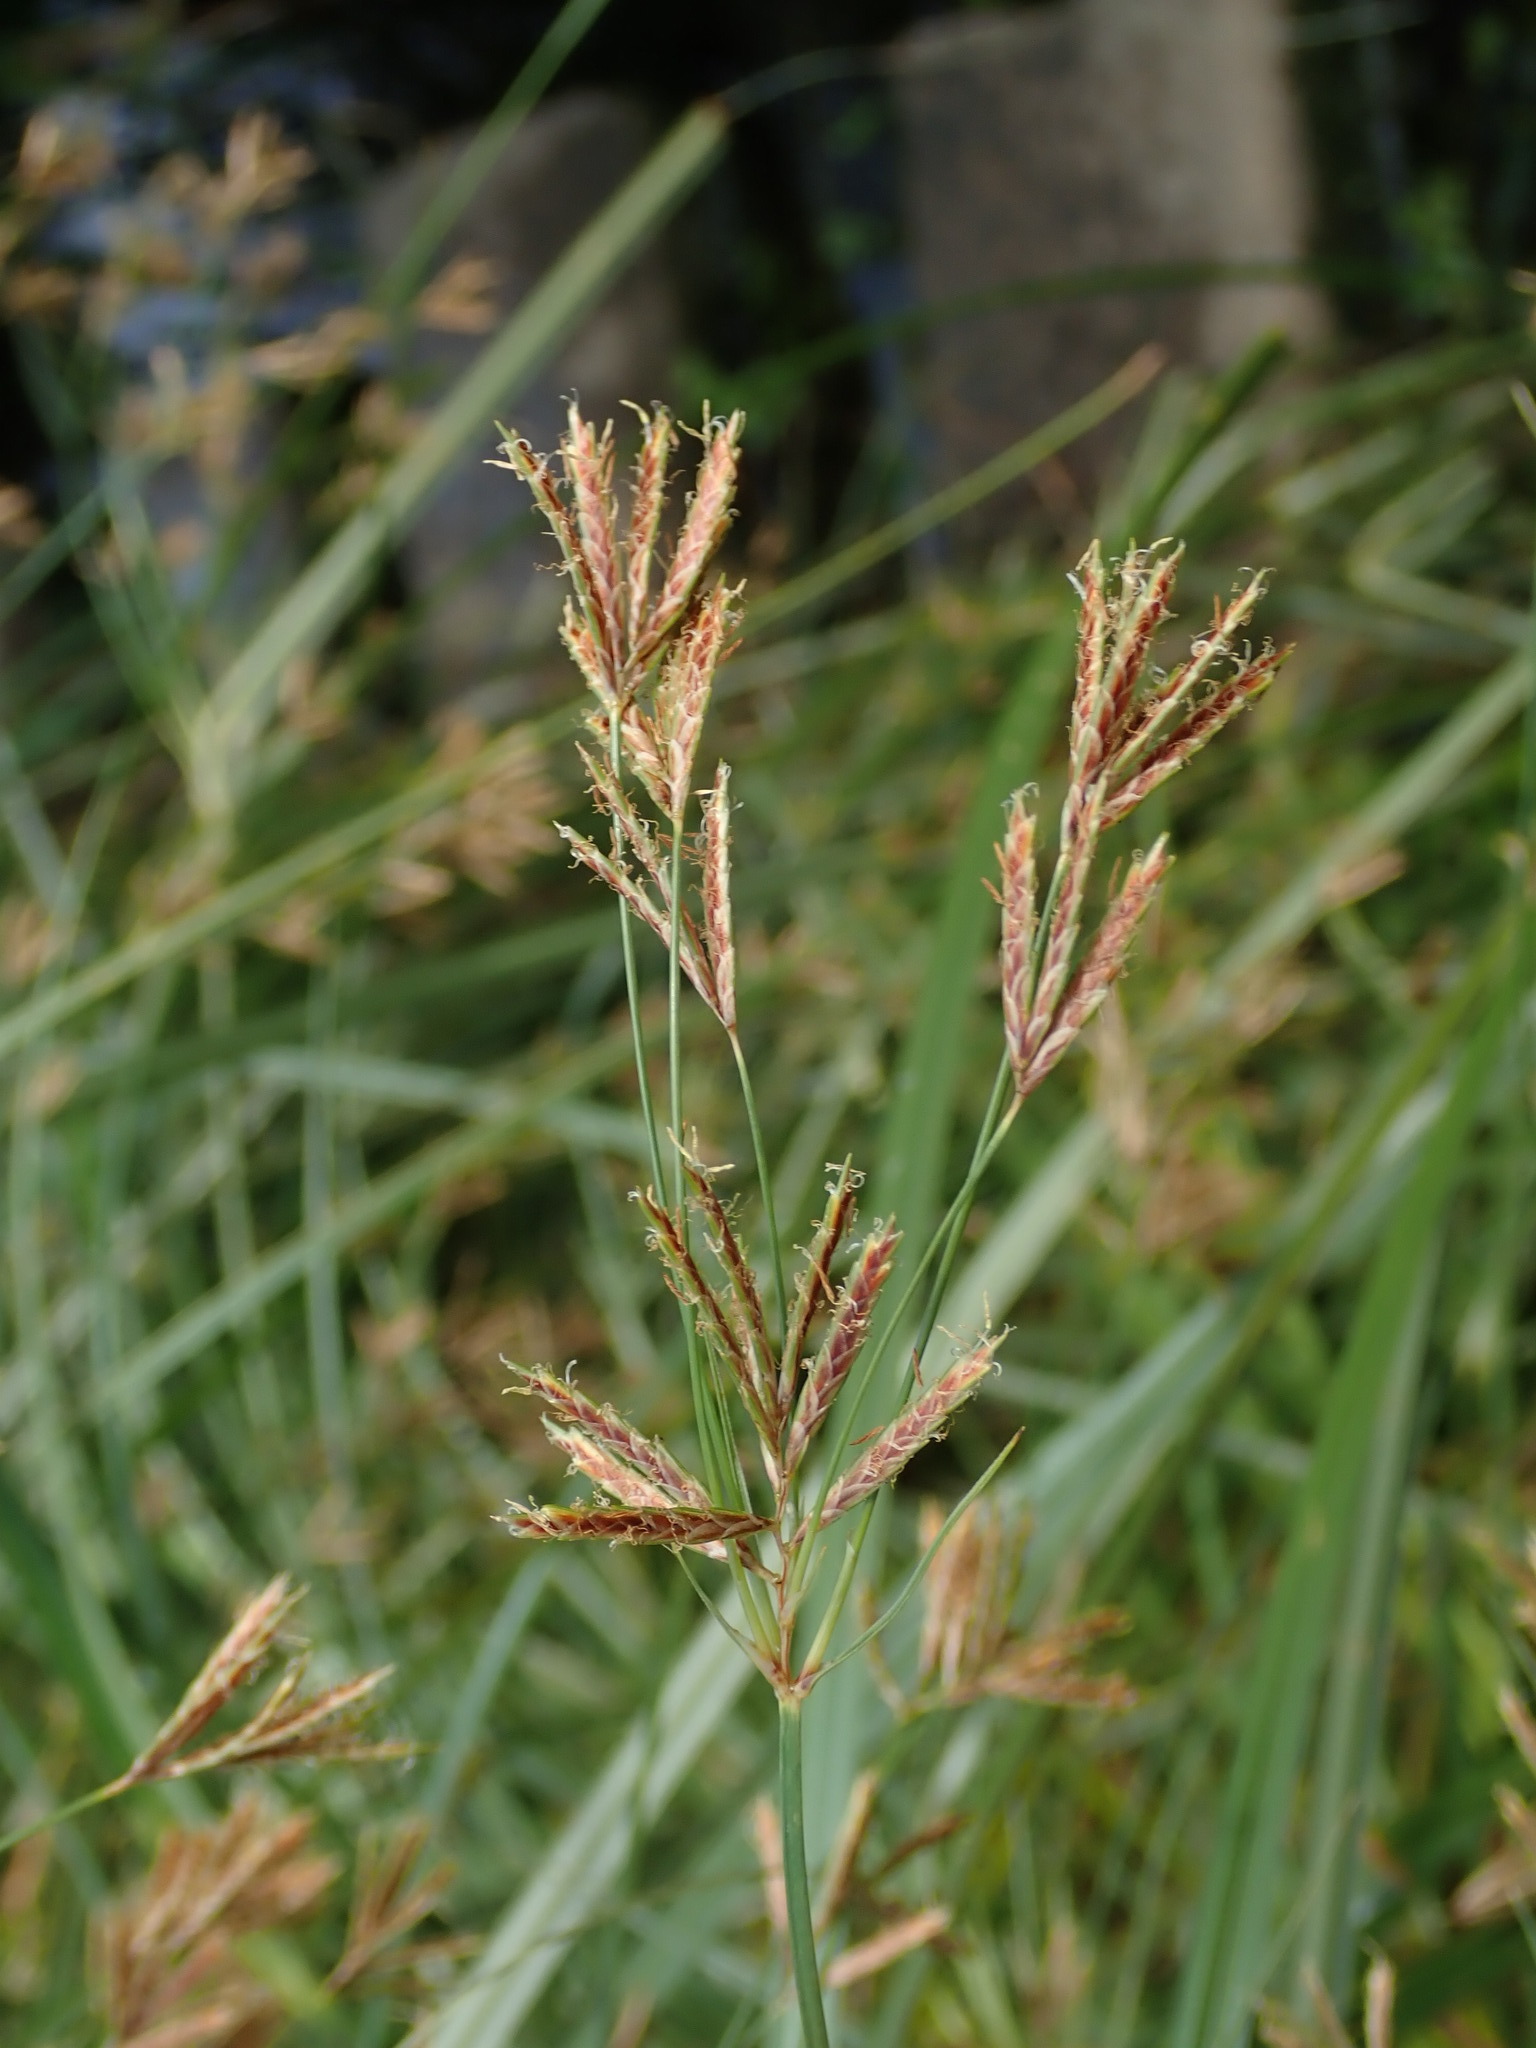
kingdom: Plantae
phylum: Tracheophyta
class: Liliopsida
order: Poales
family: Cyperaceae
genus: Cyperus
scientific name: Cyperus longus
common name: Galingale
